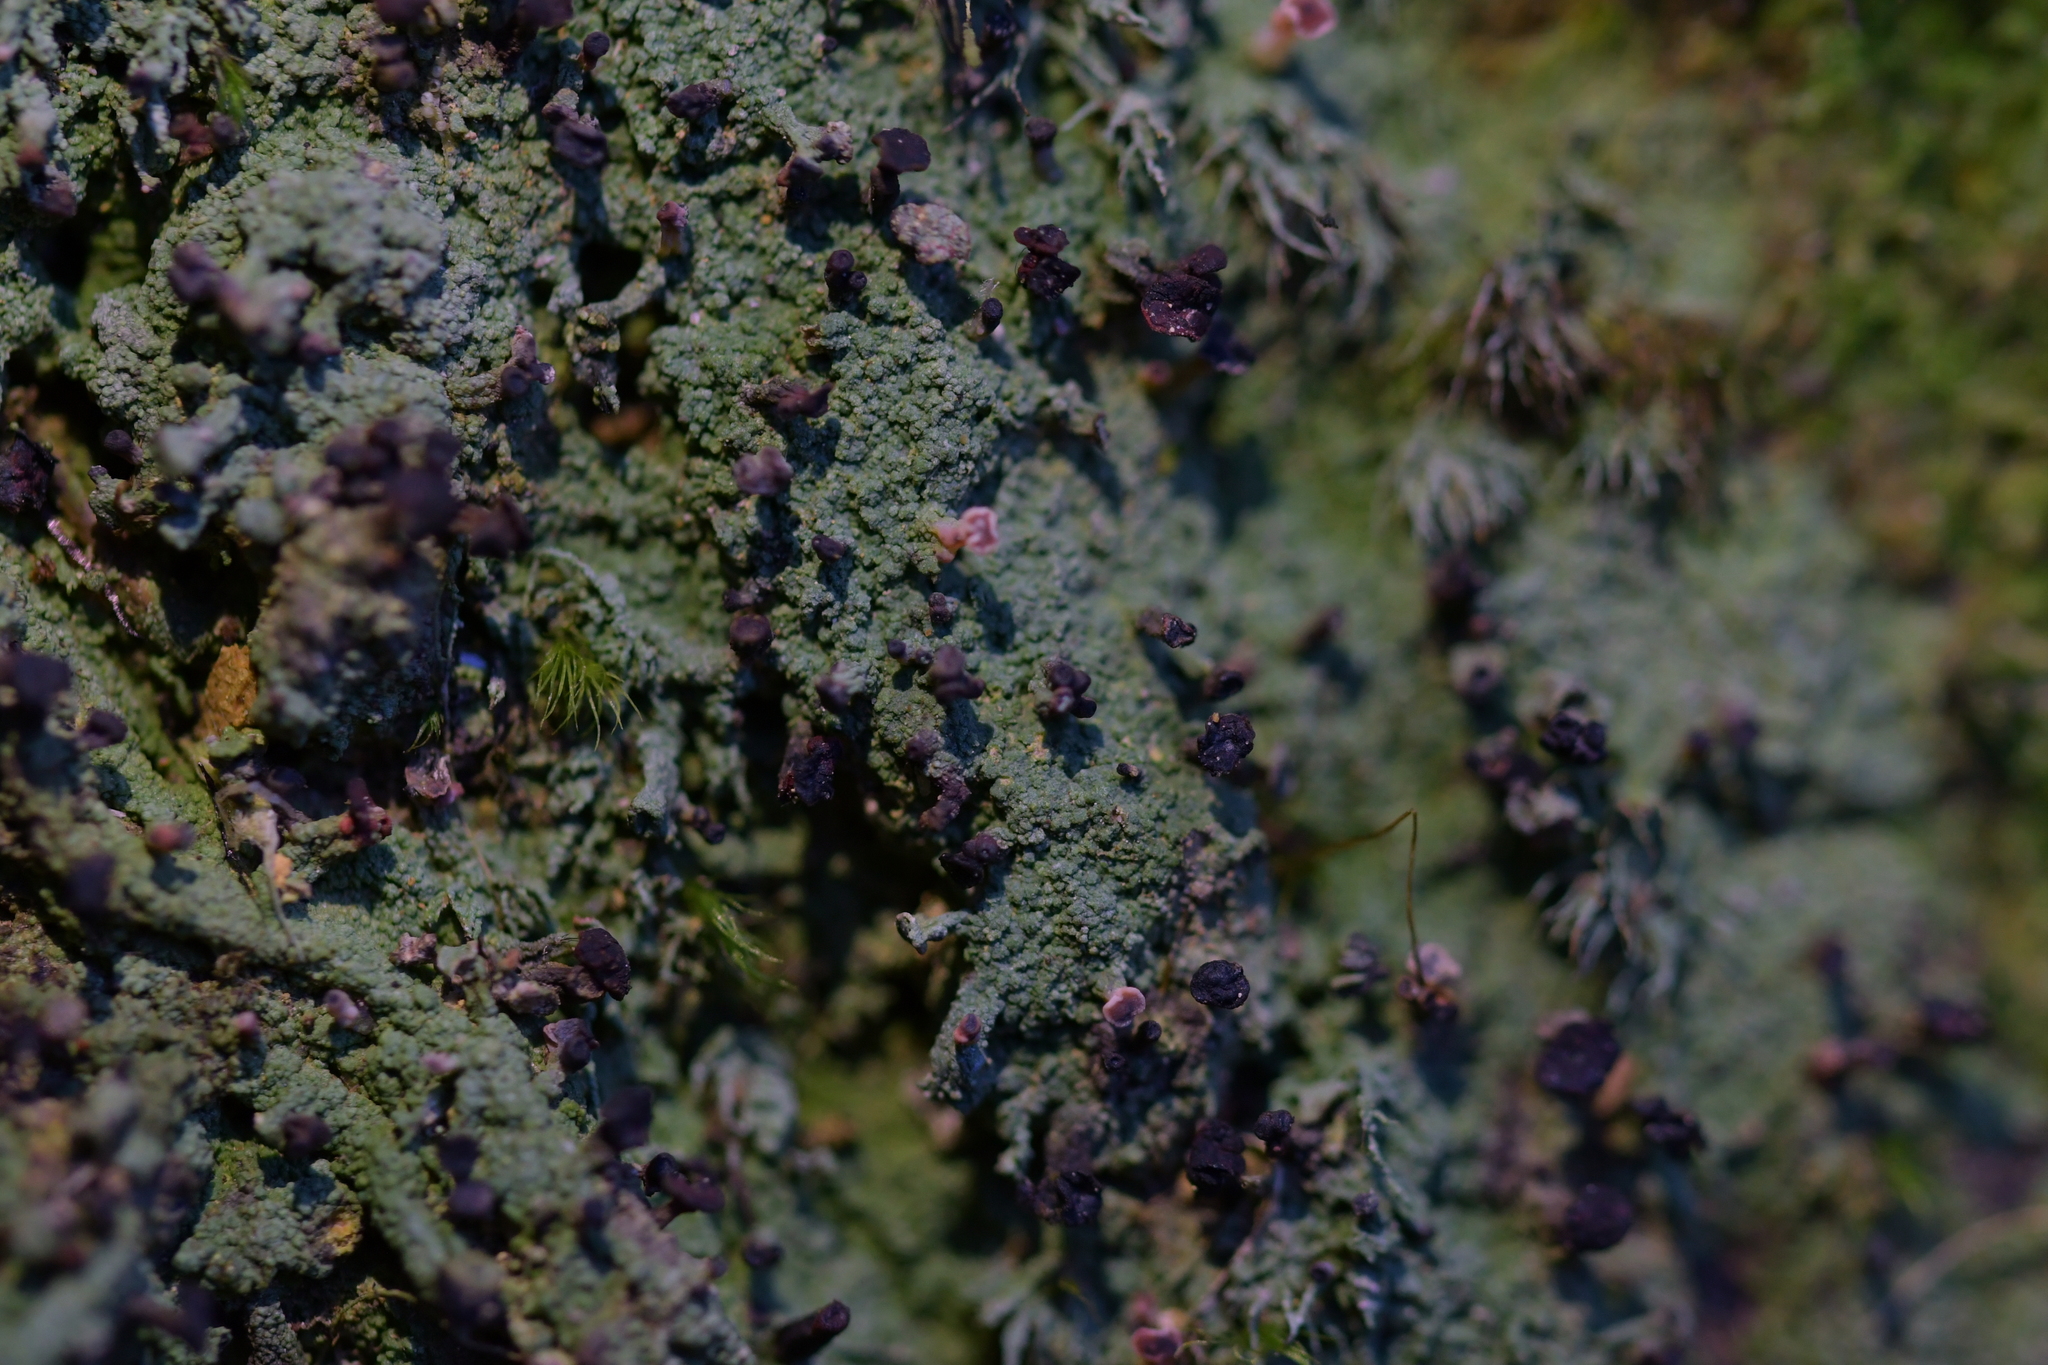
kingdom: Fungi
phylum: Ascomycota
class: Lecanoromycetes
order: Baeomycetales
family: Baeomycetaceae
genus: Baeomyces
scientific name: Baeomyces heteromorphus
